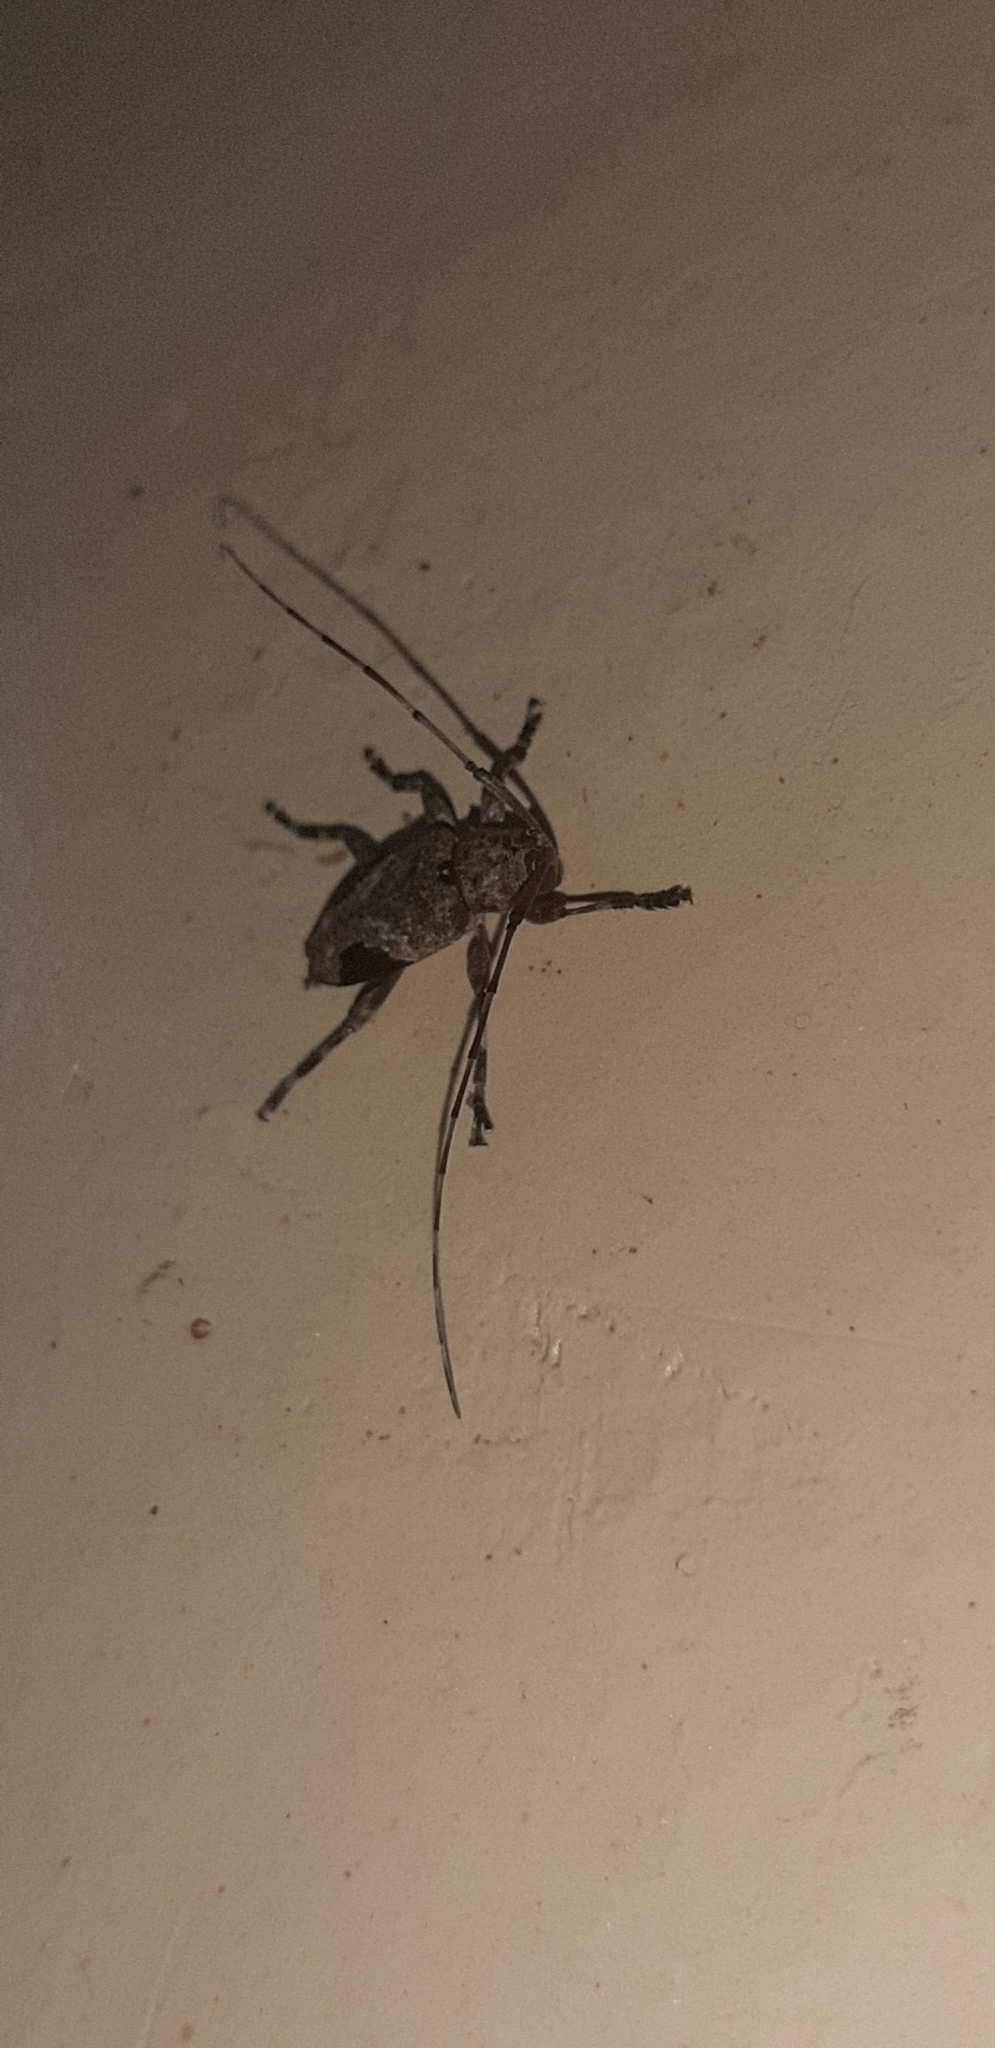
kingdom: Animalia
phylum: Arthropoda
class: Insecta
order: Coleoptera
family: Cerambycidae
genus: Hylettus
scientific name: Hylettus seniculus
